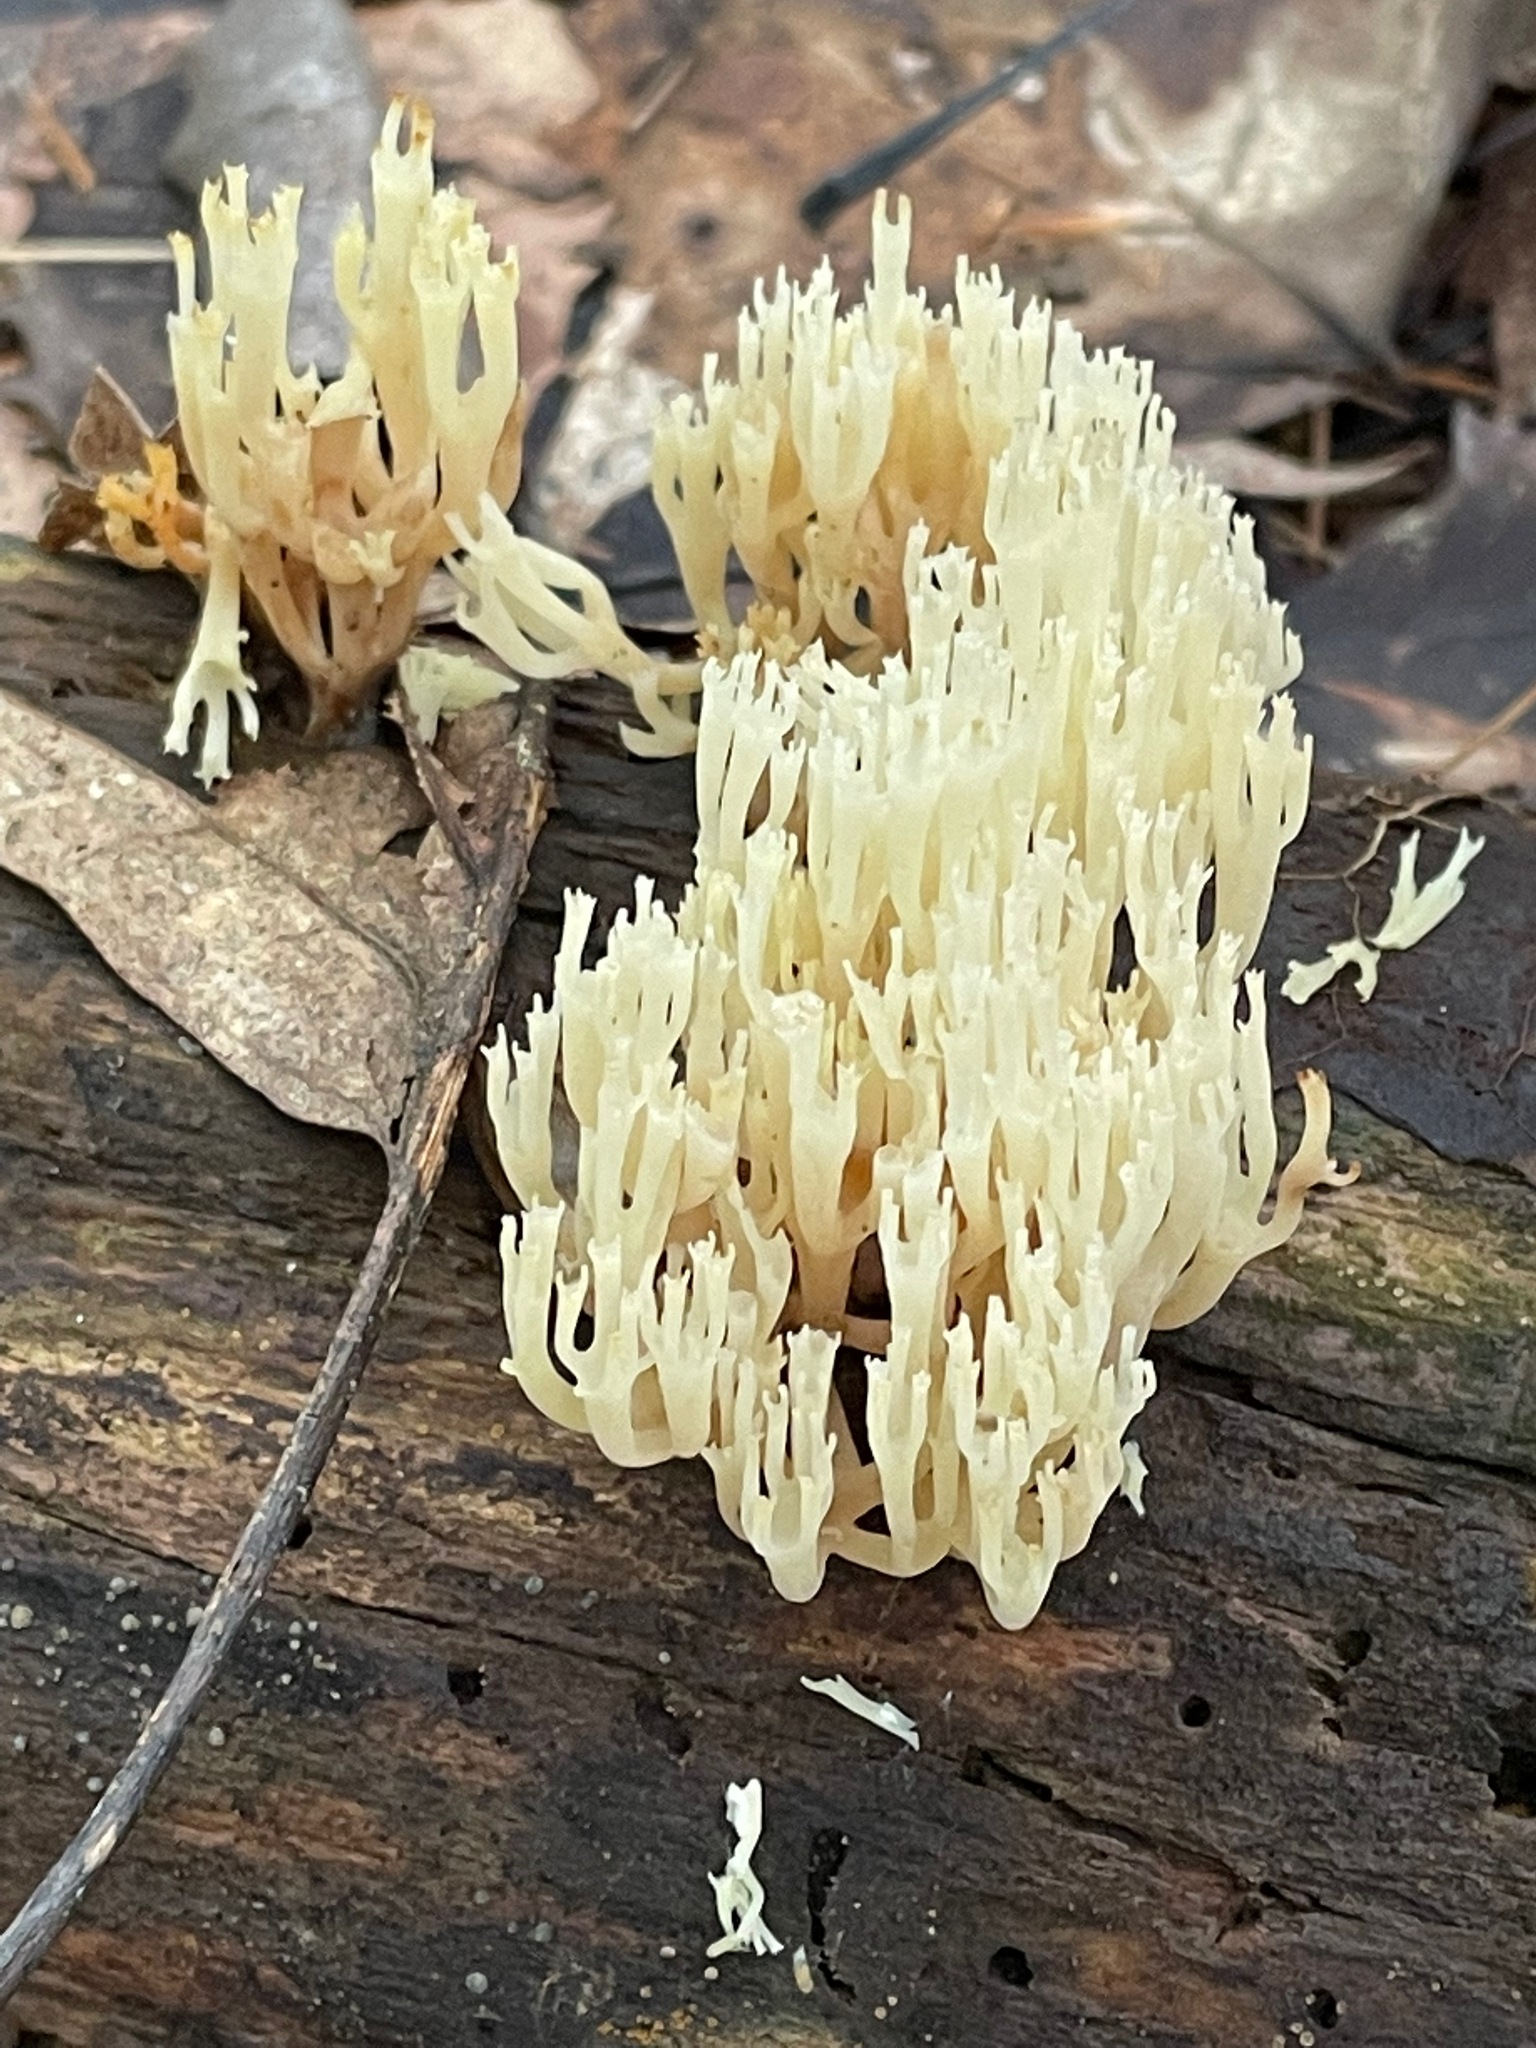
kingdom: Fungi
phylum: Basidiomycota
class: Agaricomycetes
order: Russulales
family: Auriscalpiaceae
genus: Artomyces
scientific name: Artomyces pyxidatus
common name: Crown-tipped coral fungus
